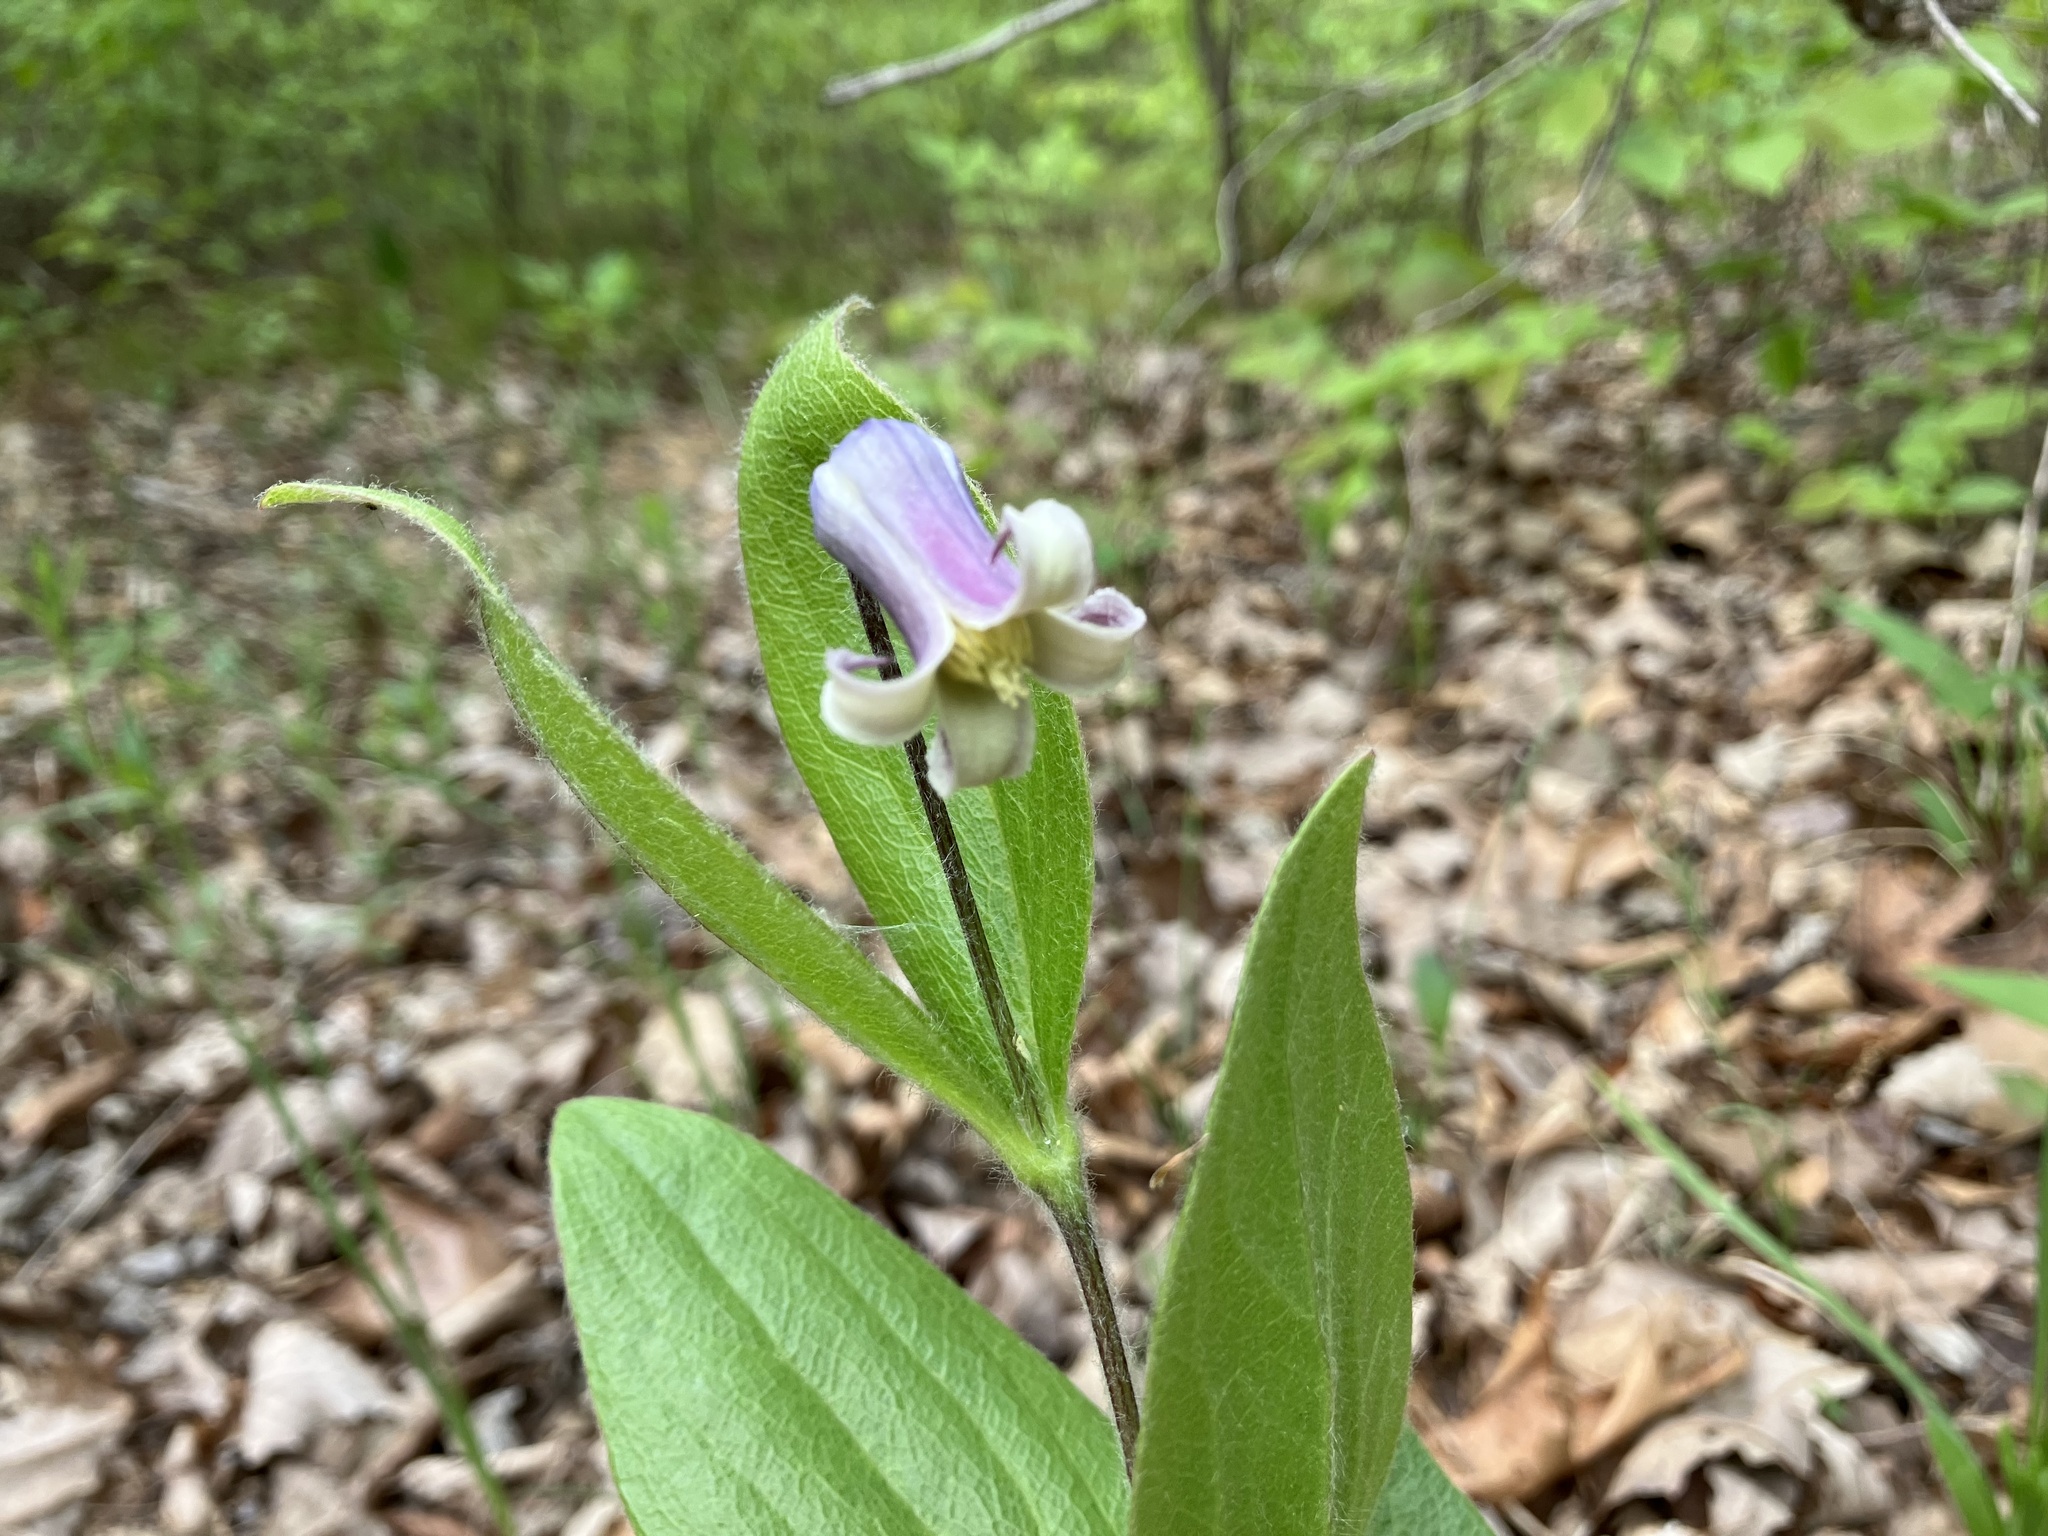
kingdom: Plantae
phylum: Tracheophyta
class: Magnoliopsida
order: Ranunculales
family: Ranunculaceae
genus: Clematis
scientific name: Clematis fremontii
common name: Fremont's clematis
